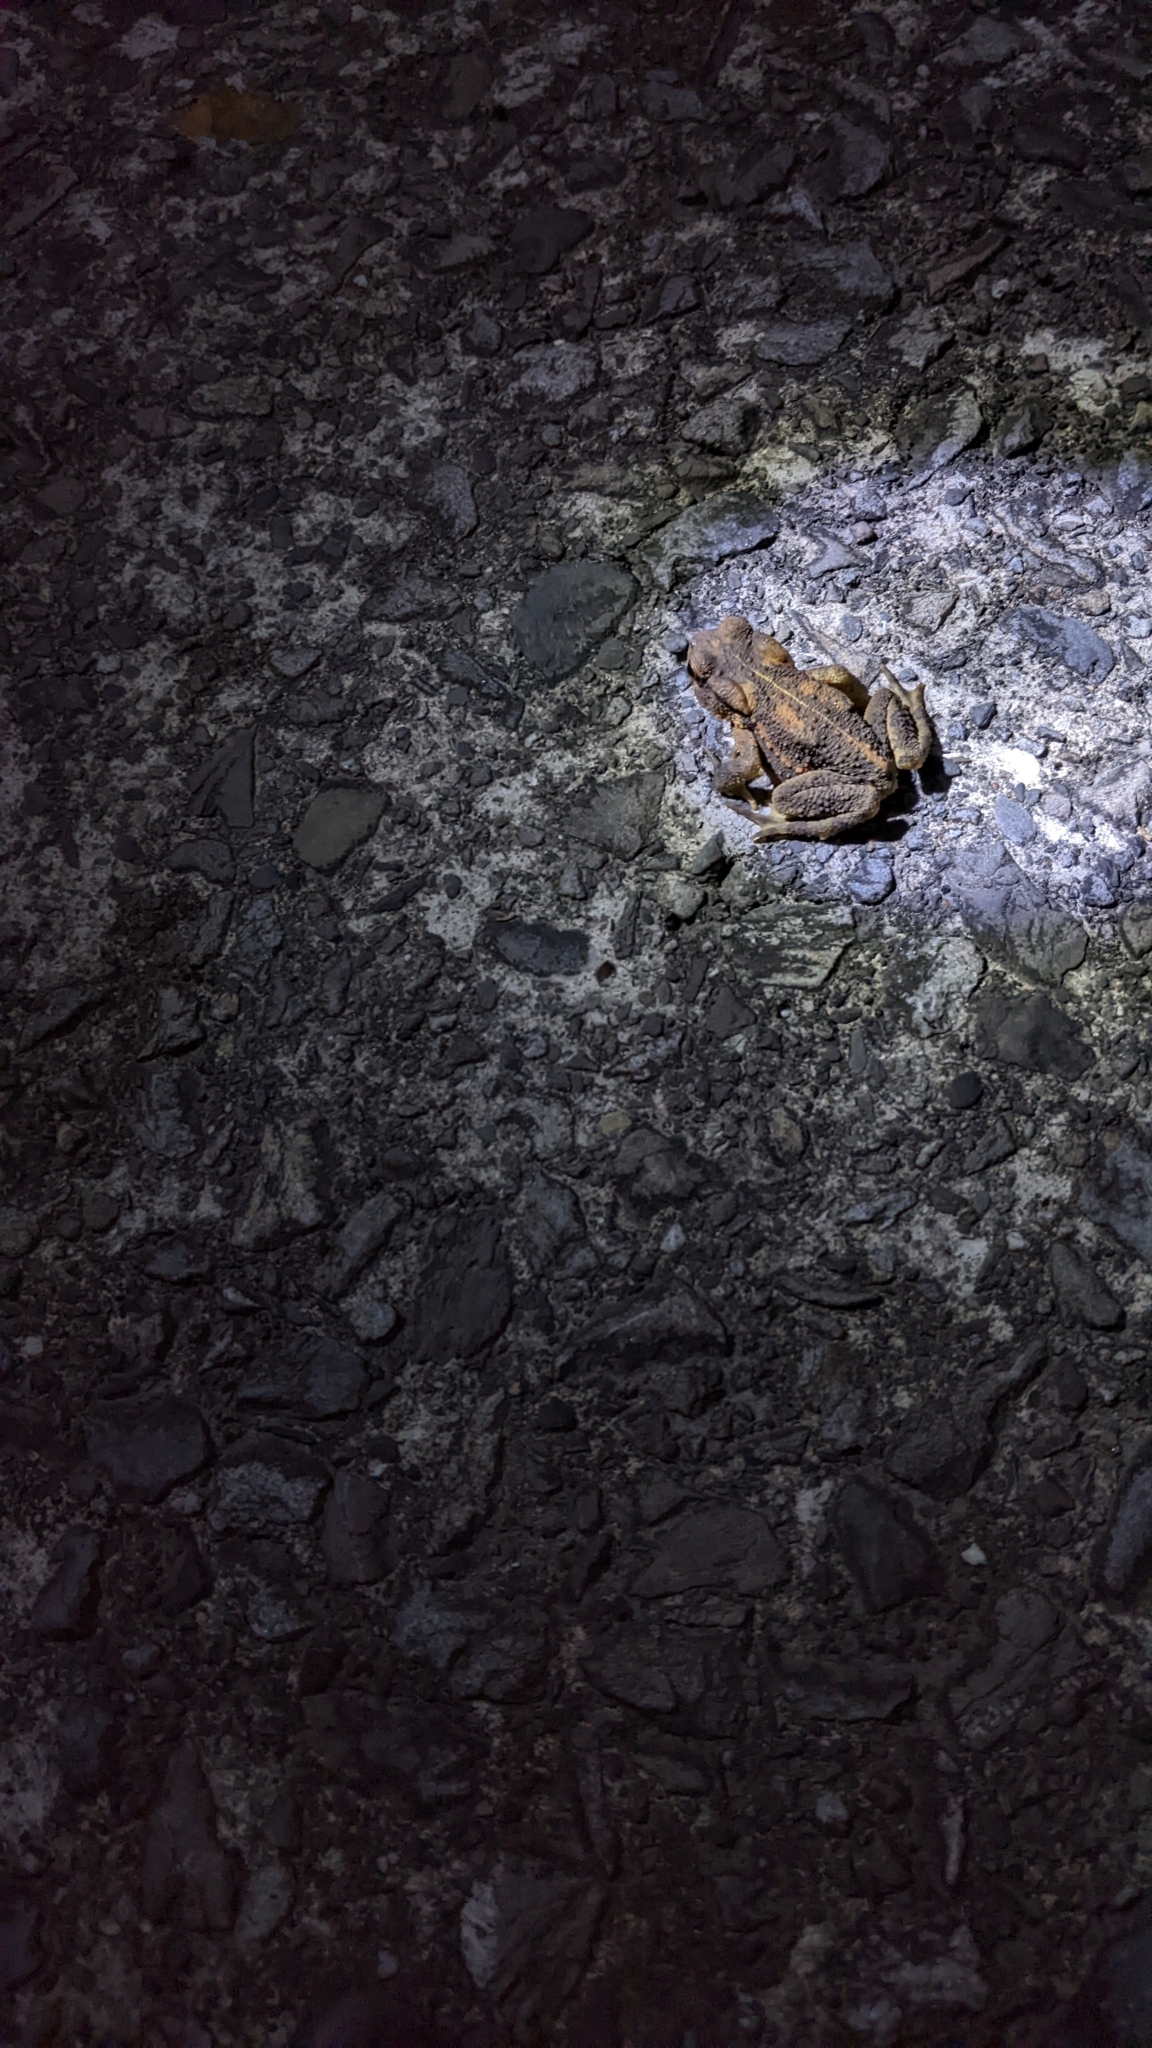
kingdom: Animalia
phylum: Chordata
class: Amphibia
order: Anura
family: Bufonidae
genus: Bufo
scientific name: Bufo bankorensis
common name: Bankor toad
